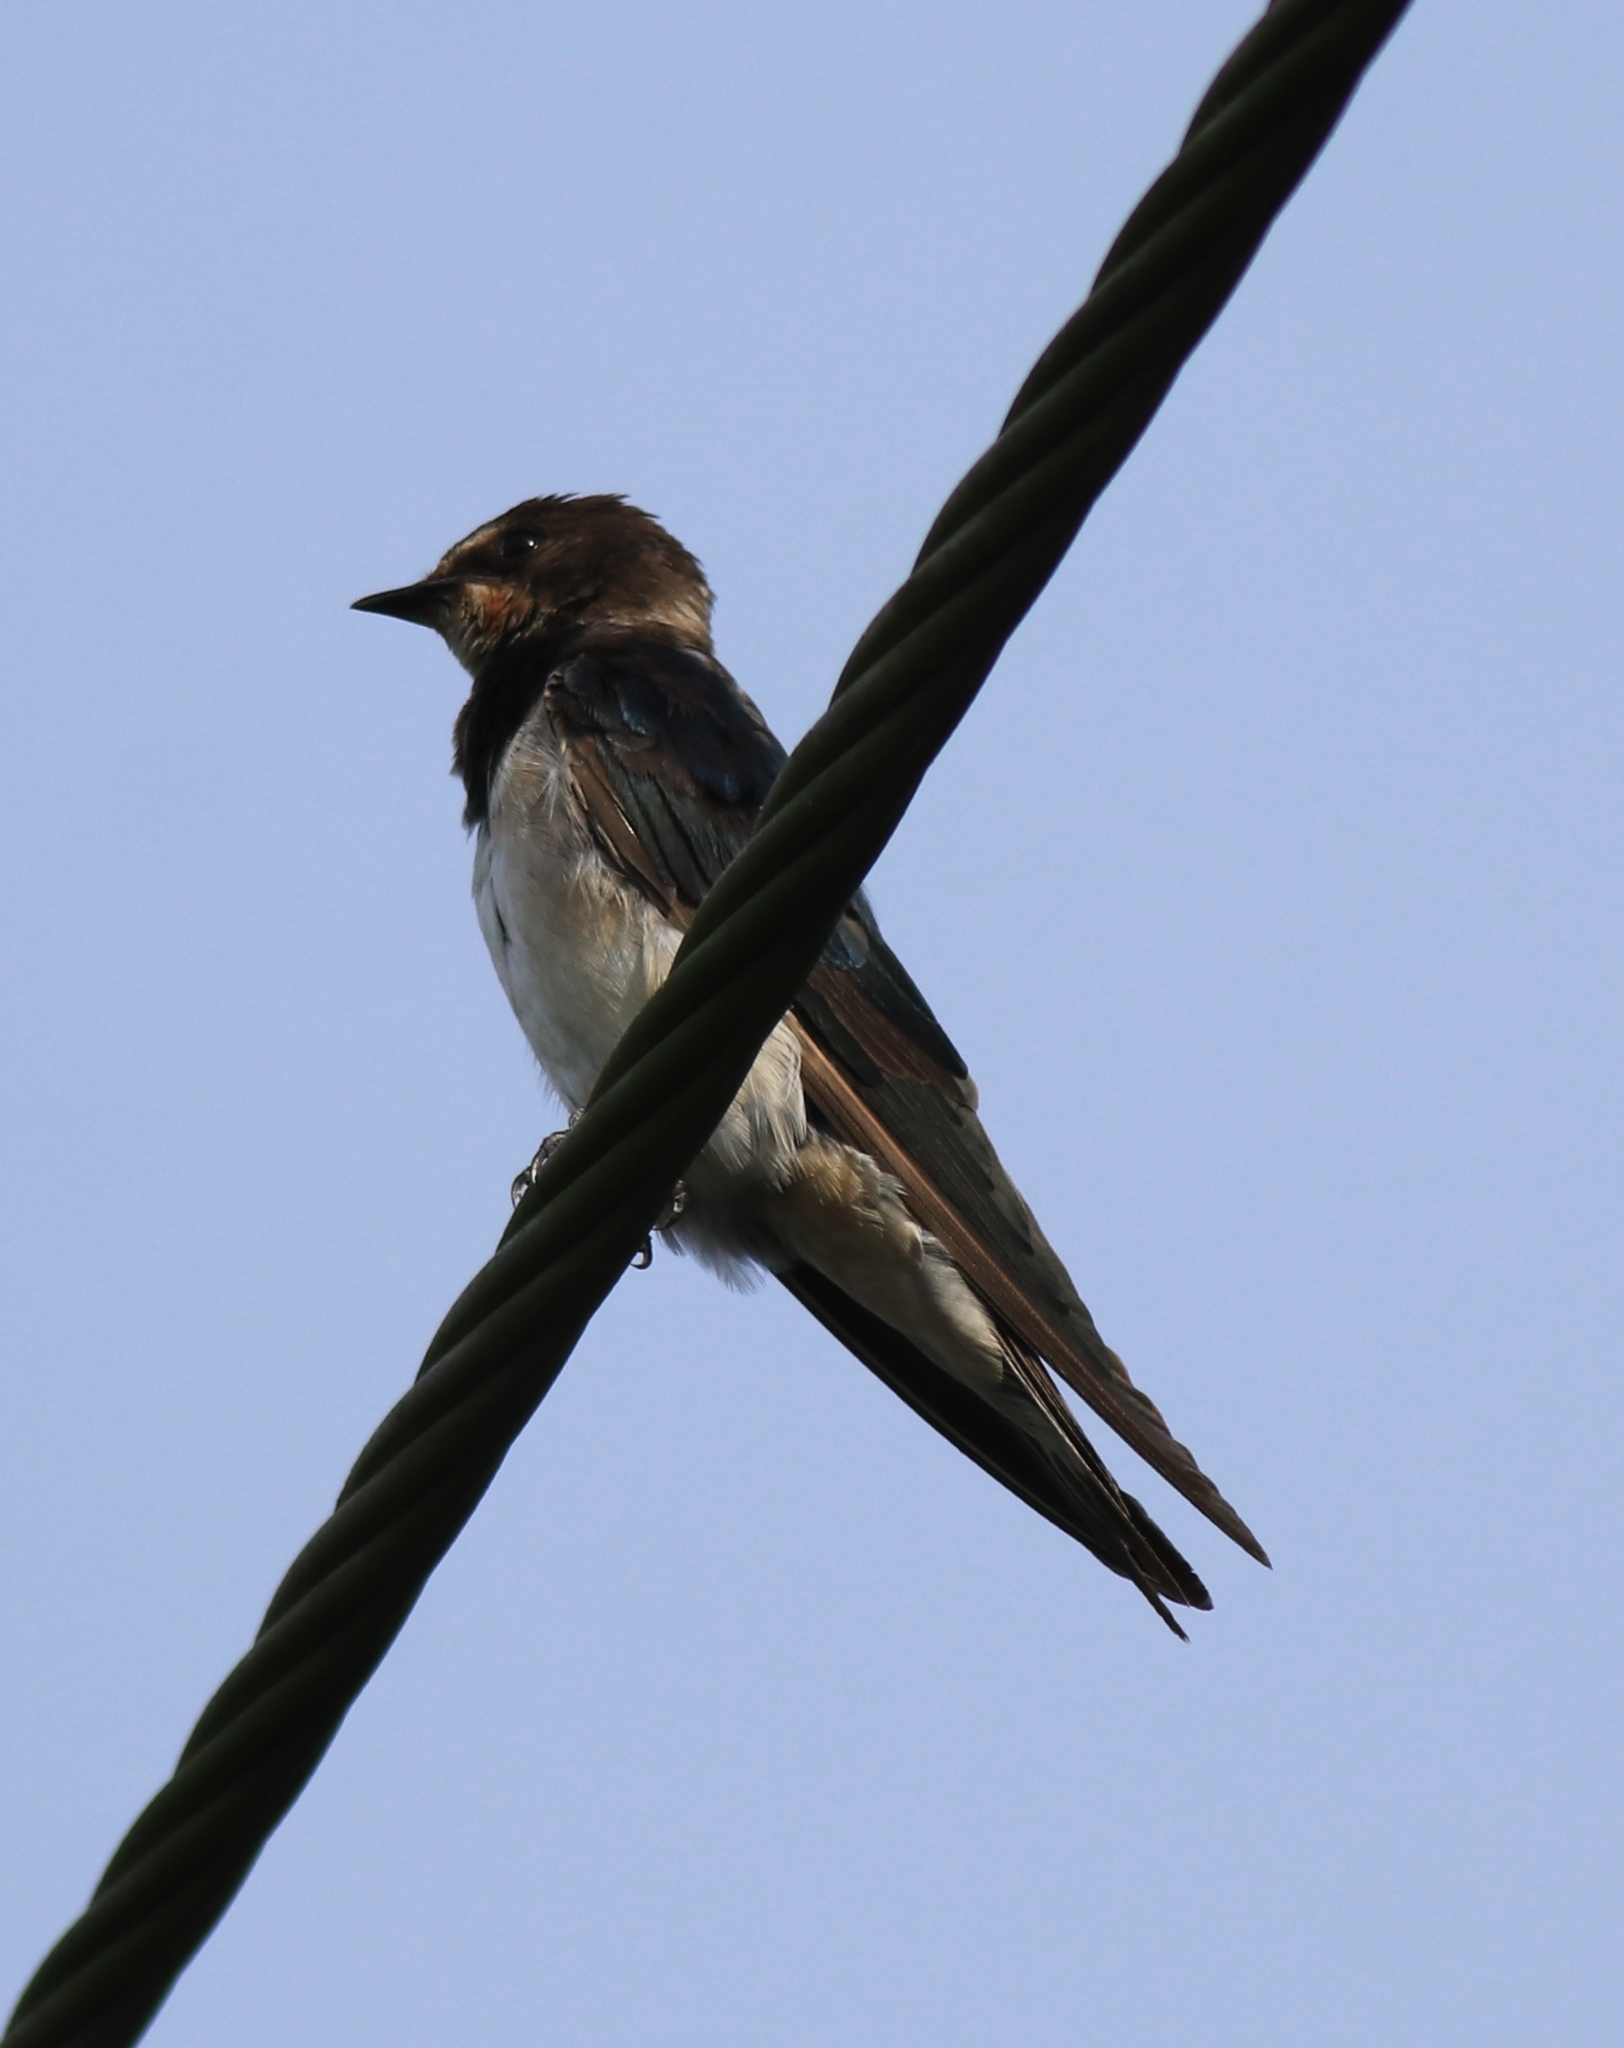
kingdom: Animalia
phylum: Chordata
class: Aves
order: Passeriformes
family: Hirundinidae
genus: Hirundo
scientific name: Hirundo rustica
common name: Barn swallow
